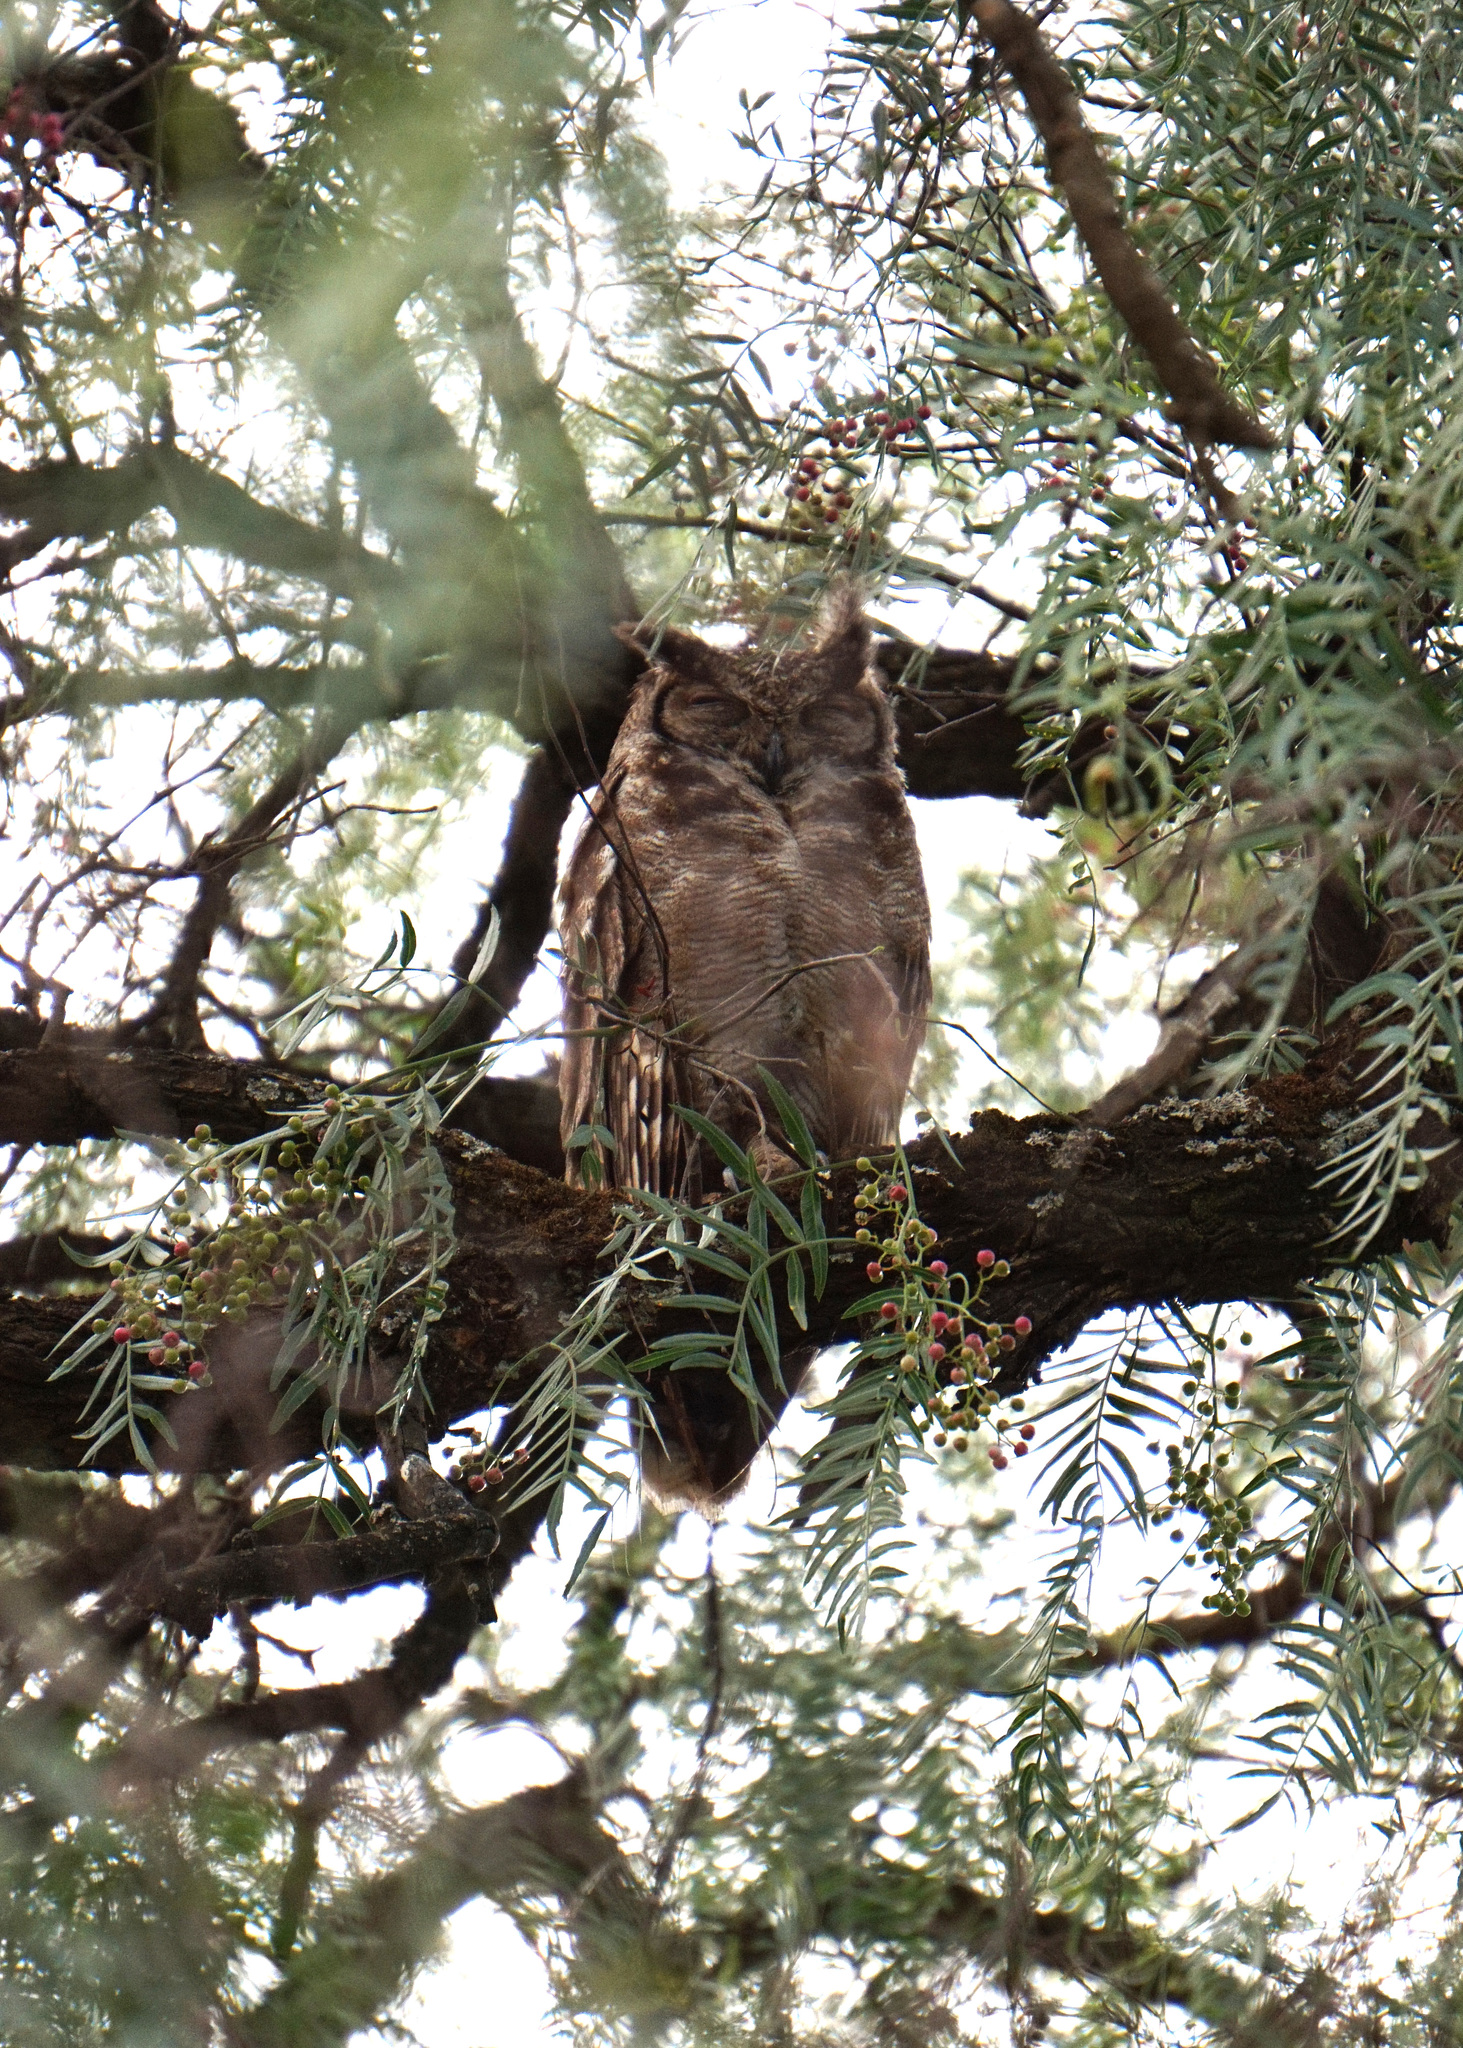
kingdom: Animalia
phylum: Chordata
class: Aves
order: Strigiformes
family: Strigidae
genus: Bubo
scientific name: Bubo cinerascens
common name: Greyish eagle-owl
